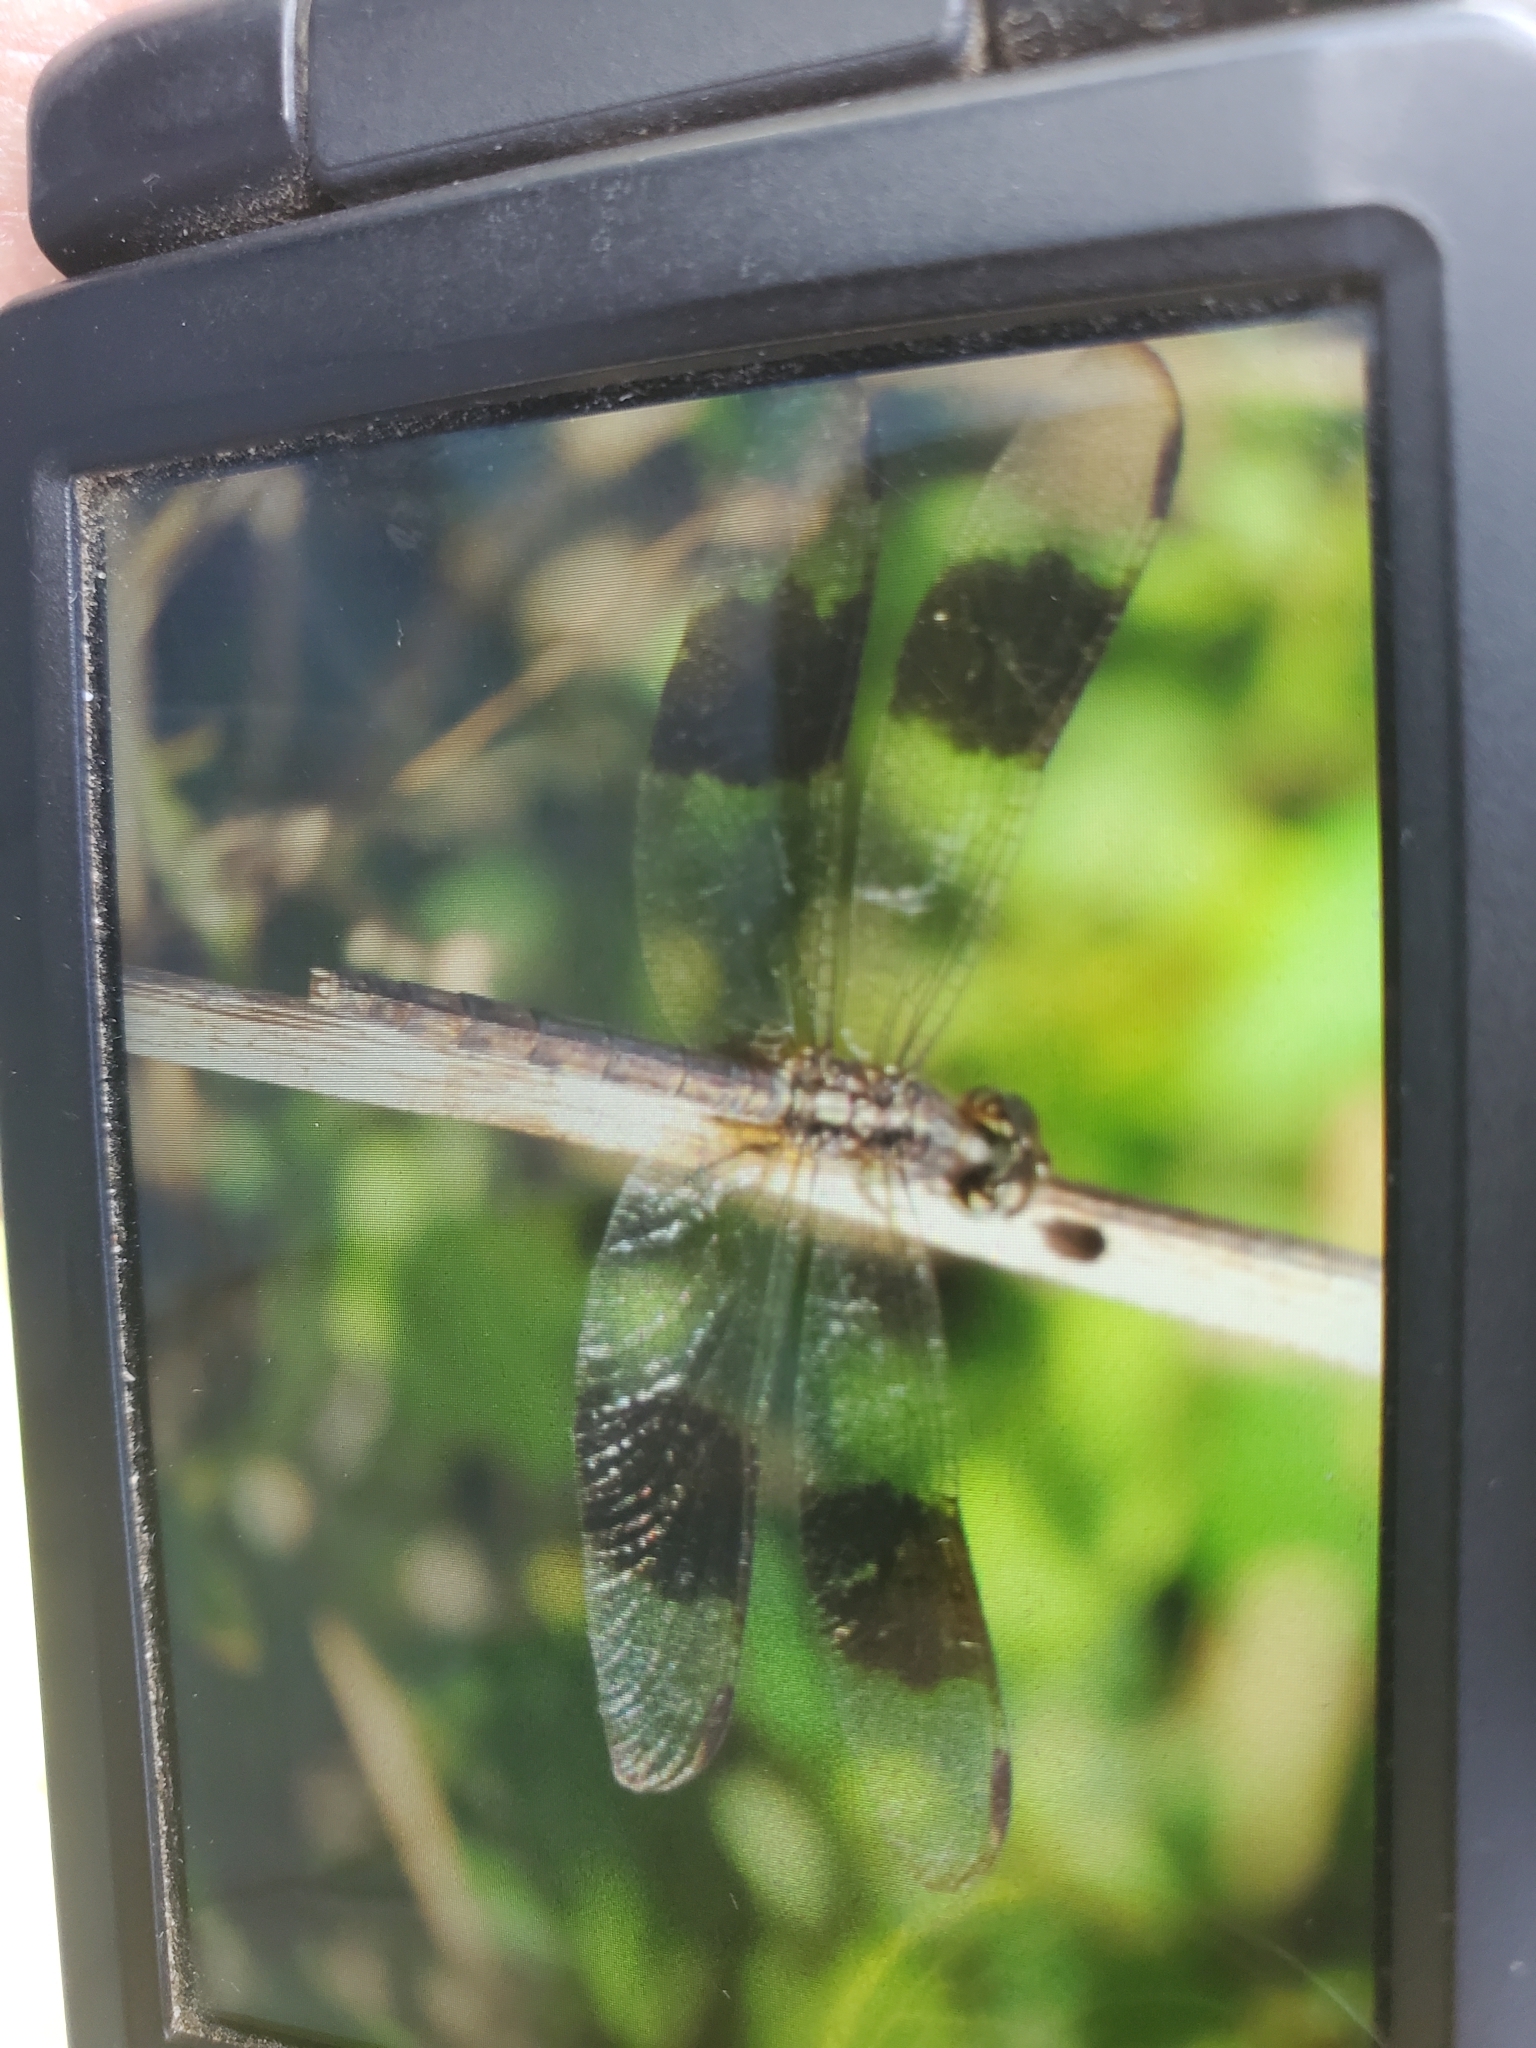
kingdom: Animalia
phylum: Arthropoda
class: Insecta
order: Odonata
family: Libellulidae
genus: Erythrodiplax
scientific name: Erythrodiplax umbrata
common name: Band-winged dragonlet
